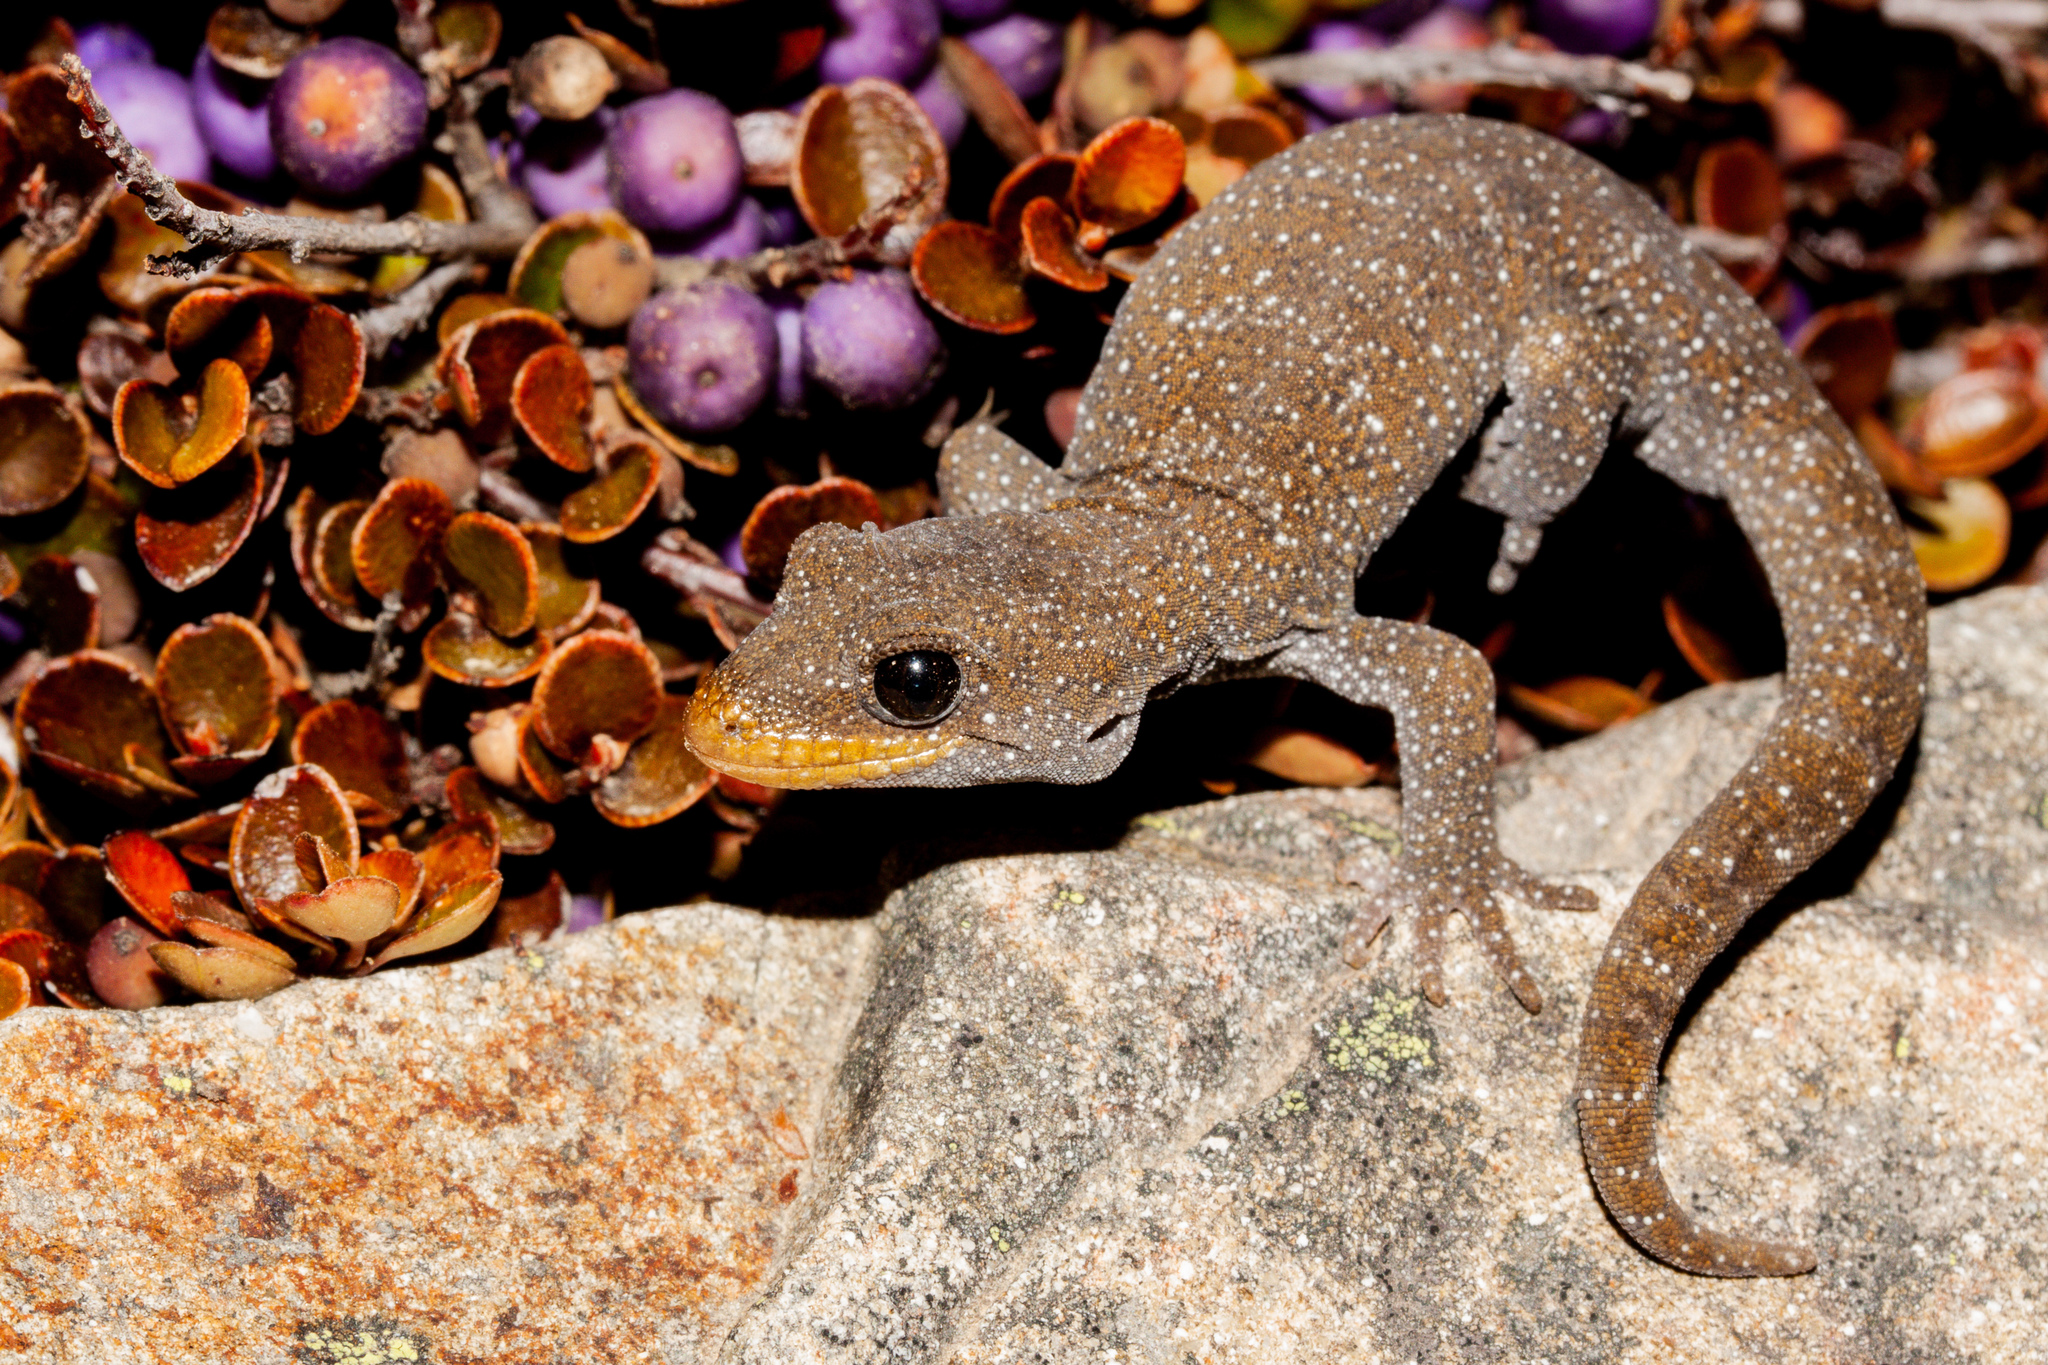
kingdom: Animalia
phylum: Chordata
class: Squamata
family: Diplodactylidae
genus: Mokopirirakau
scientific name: Mokopirirakau galaxias
